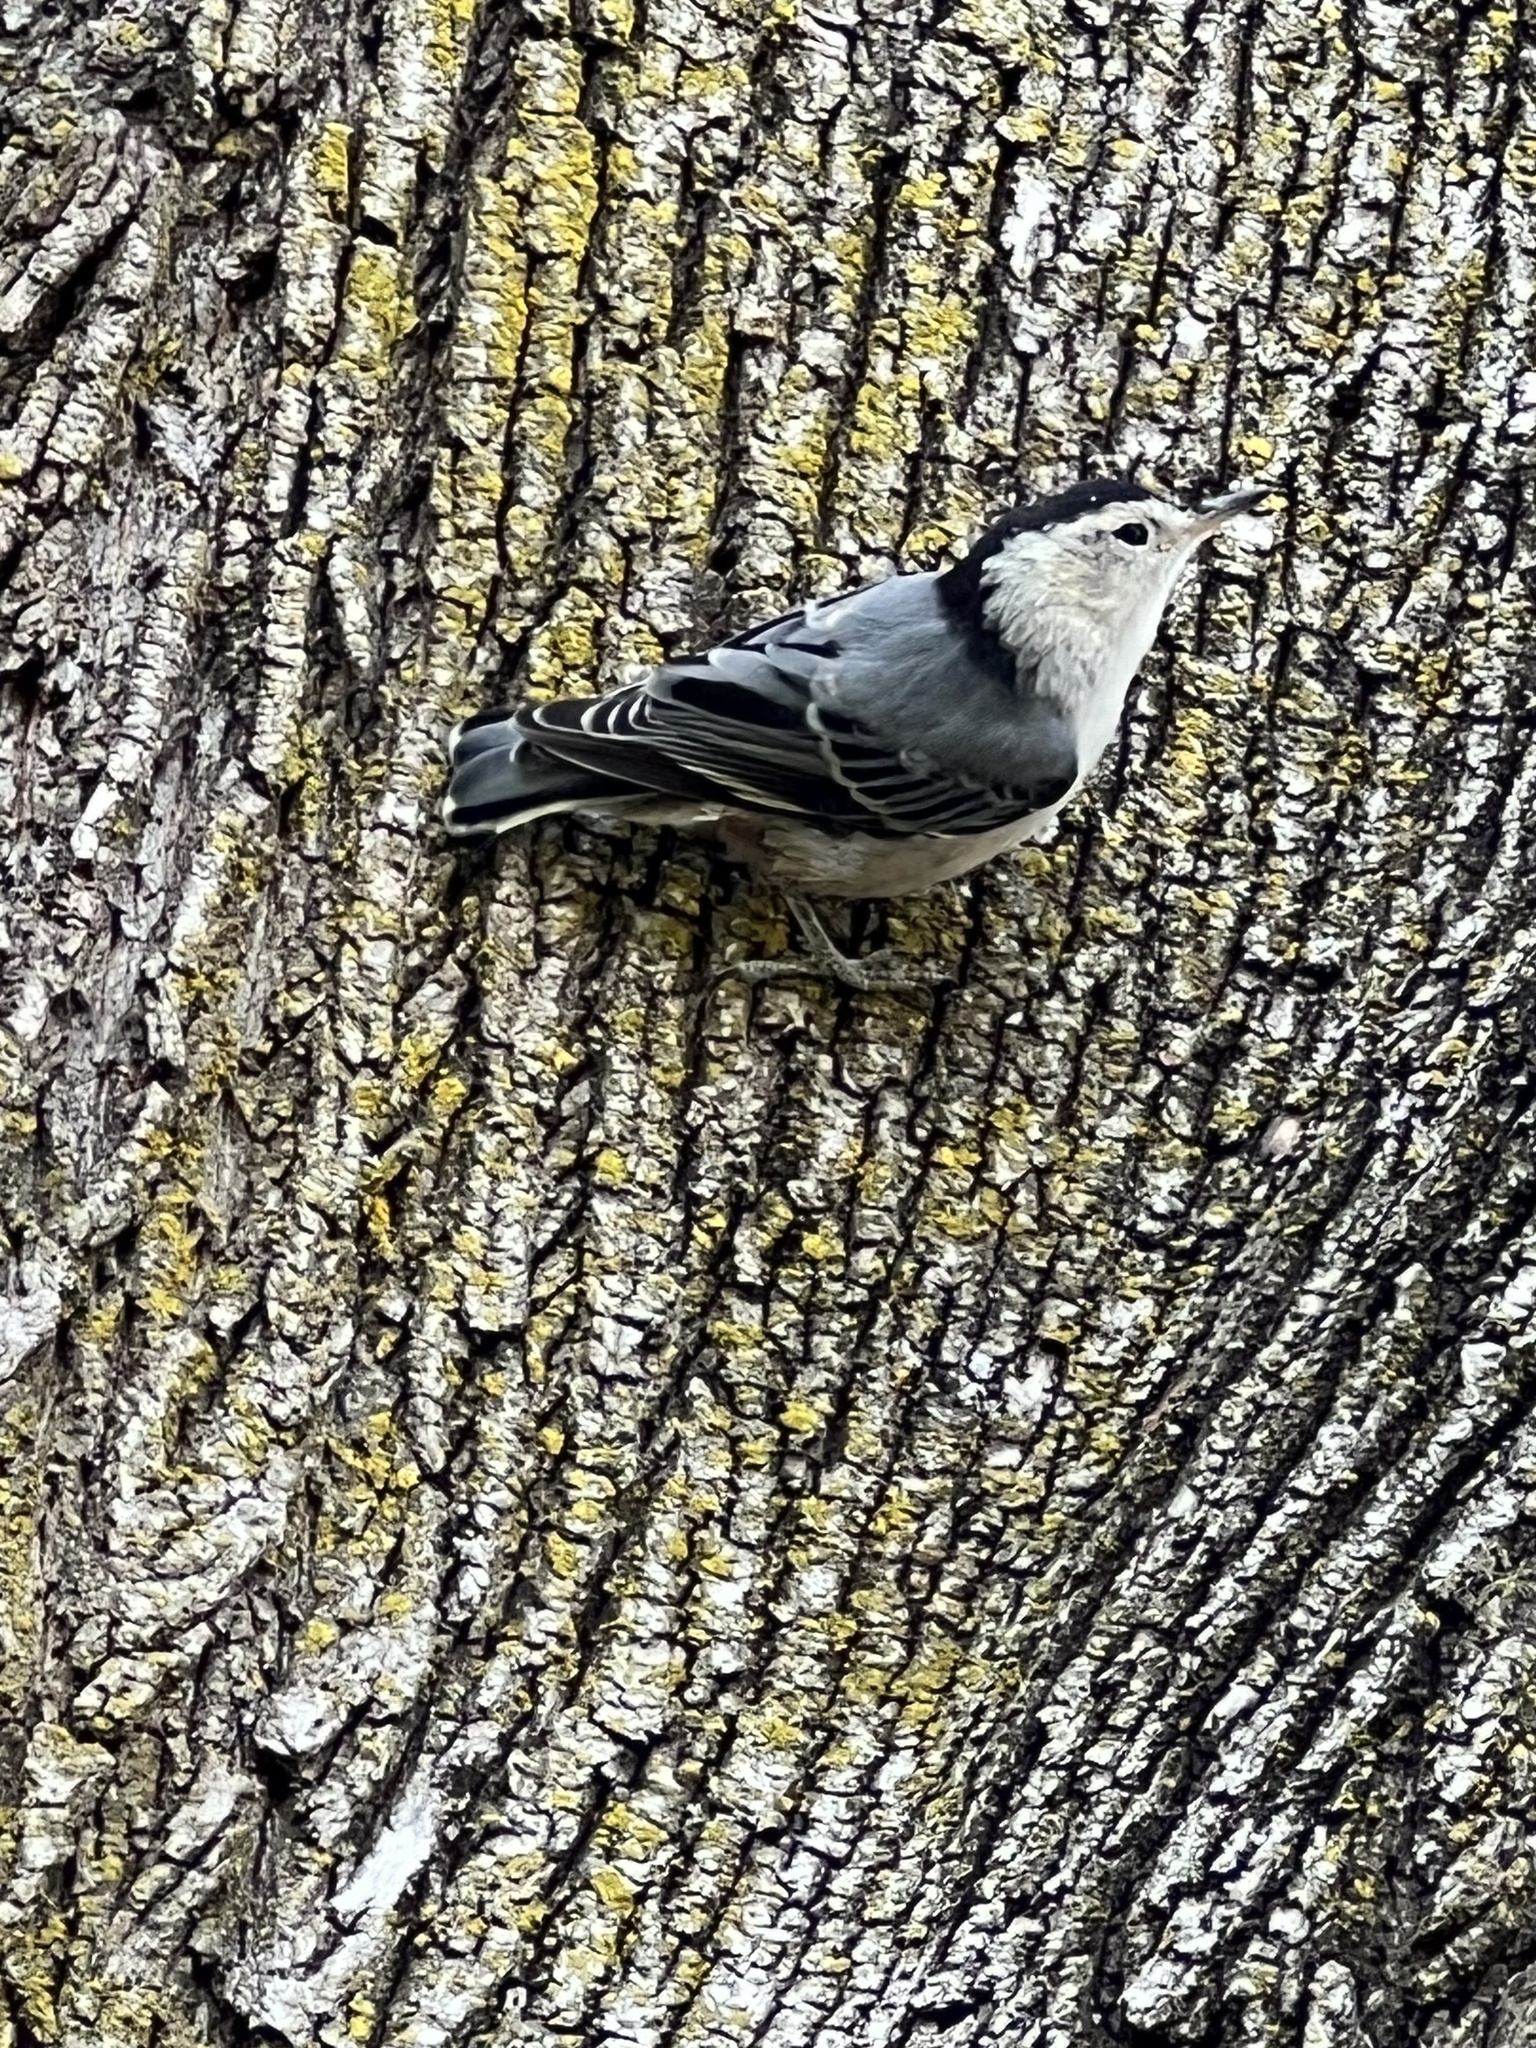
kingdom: Animalia
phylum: Chordata
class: Aves
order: Passeriformes
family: Sittidae
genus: Sitta
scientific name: Sitta carolinensis
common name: White-breasted nuthatch
